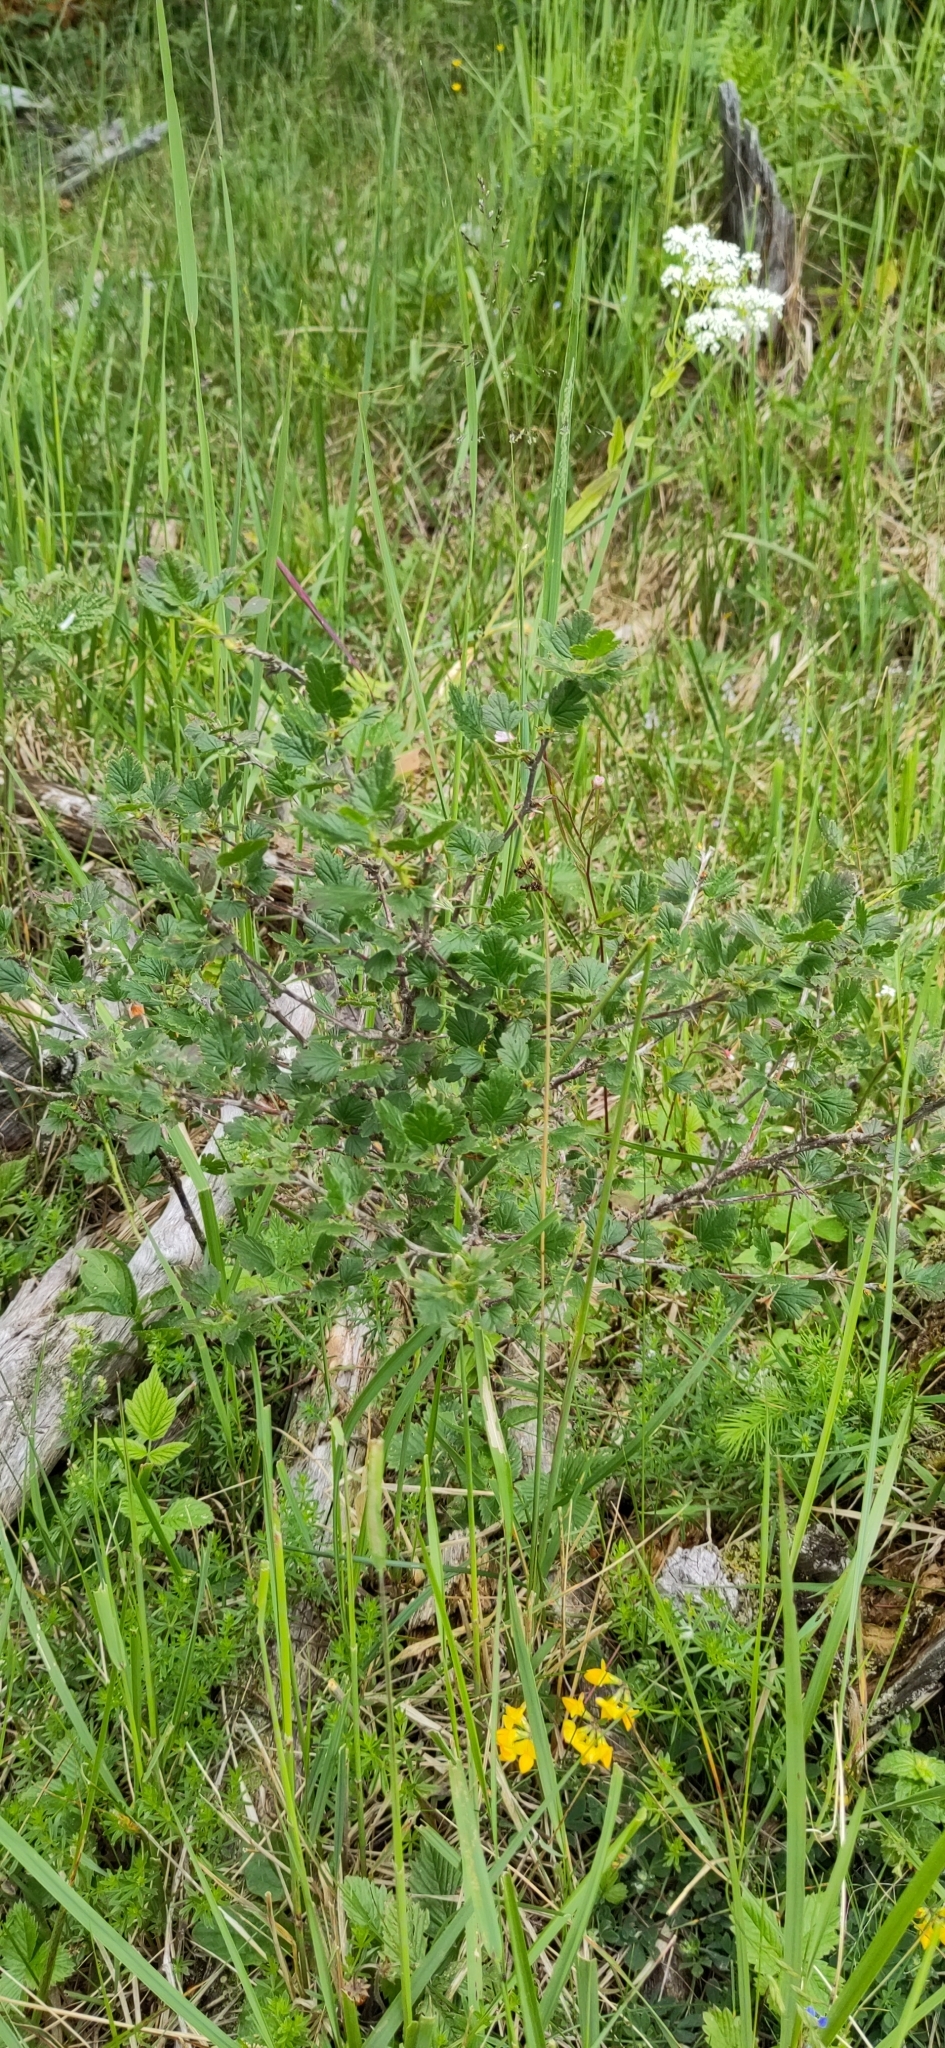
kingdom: Plantae
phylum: Tracheophyta
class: Magnoliopsida
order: Saxifragales
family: Grossulariaceae
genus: Ribes
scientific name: Ribes uva-crispa
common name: Gooseberry
